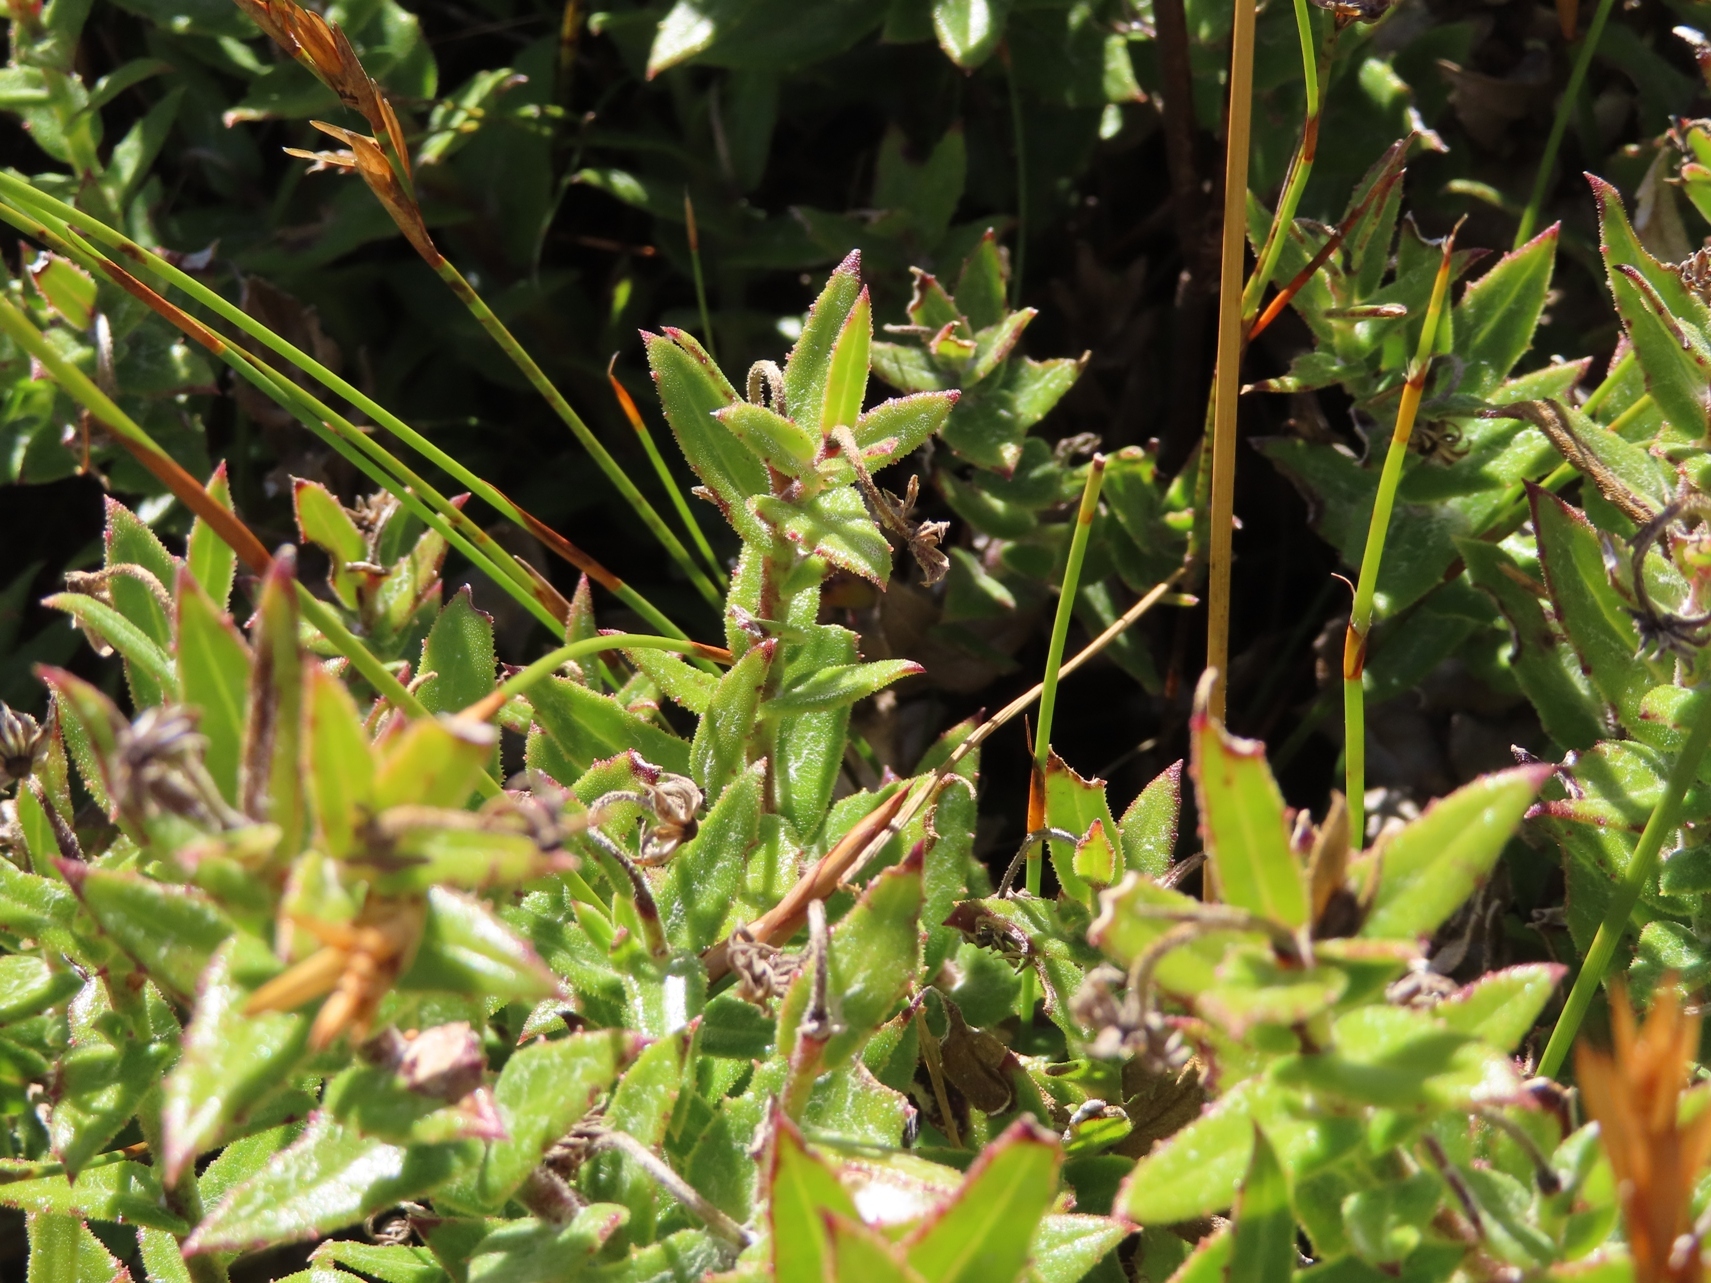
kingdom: Plantae
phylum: Tracheophyta
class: Magnoliopsida
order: Asterales
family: Asteraceae
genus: Osteospermum
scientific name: Osteospermum ilicifolium
